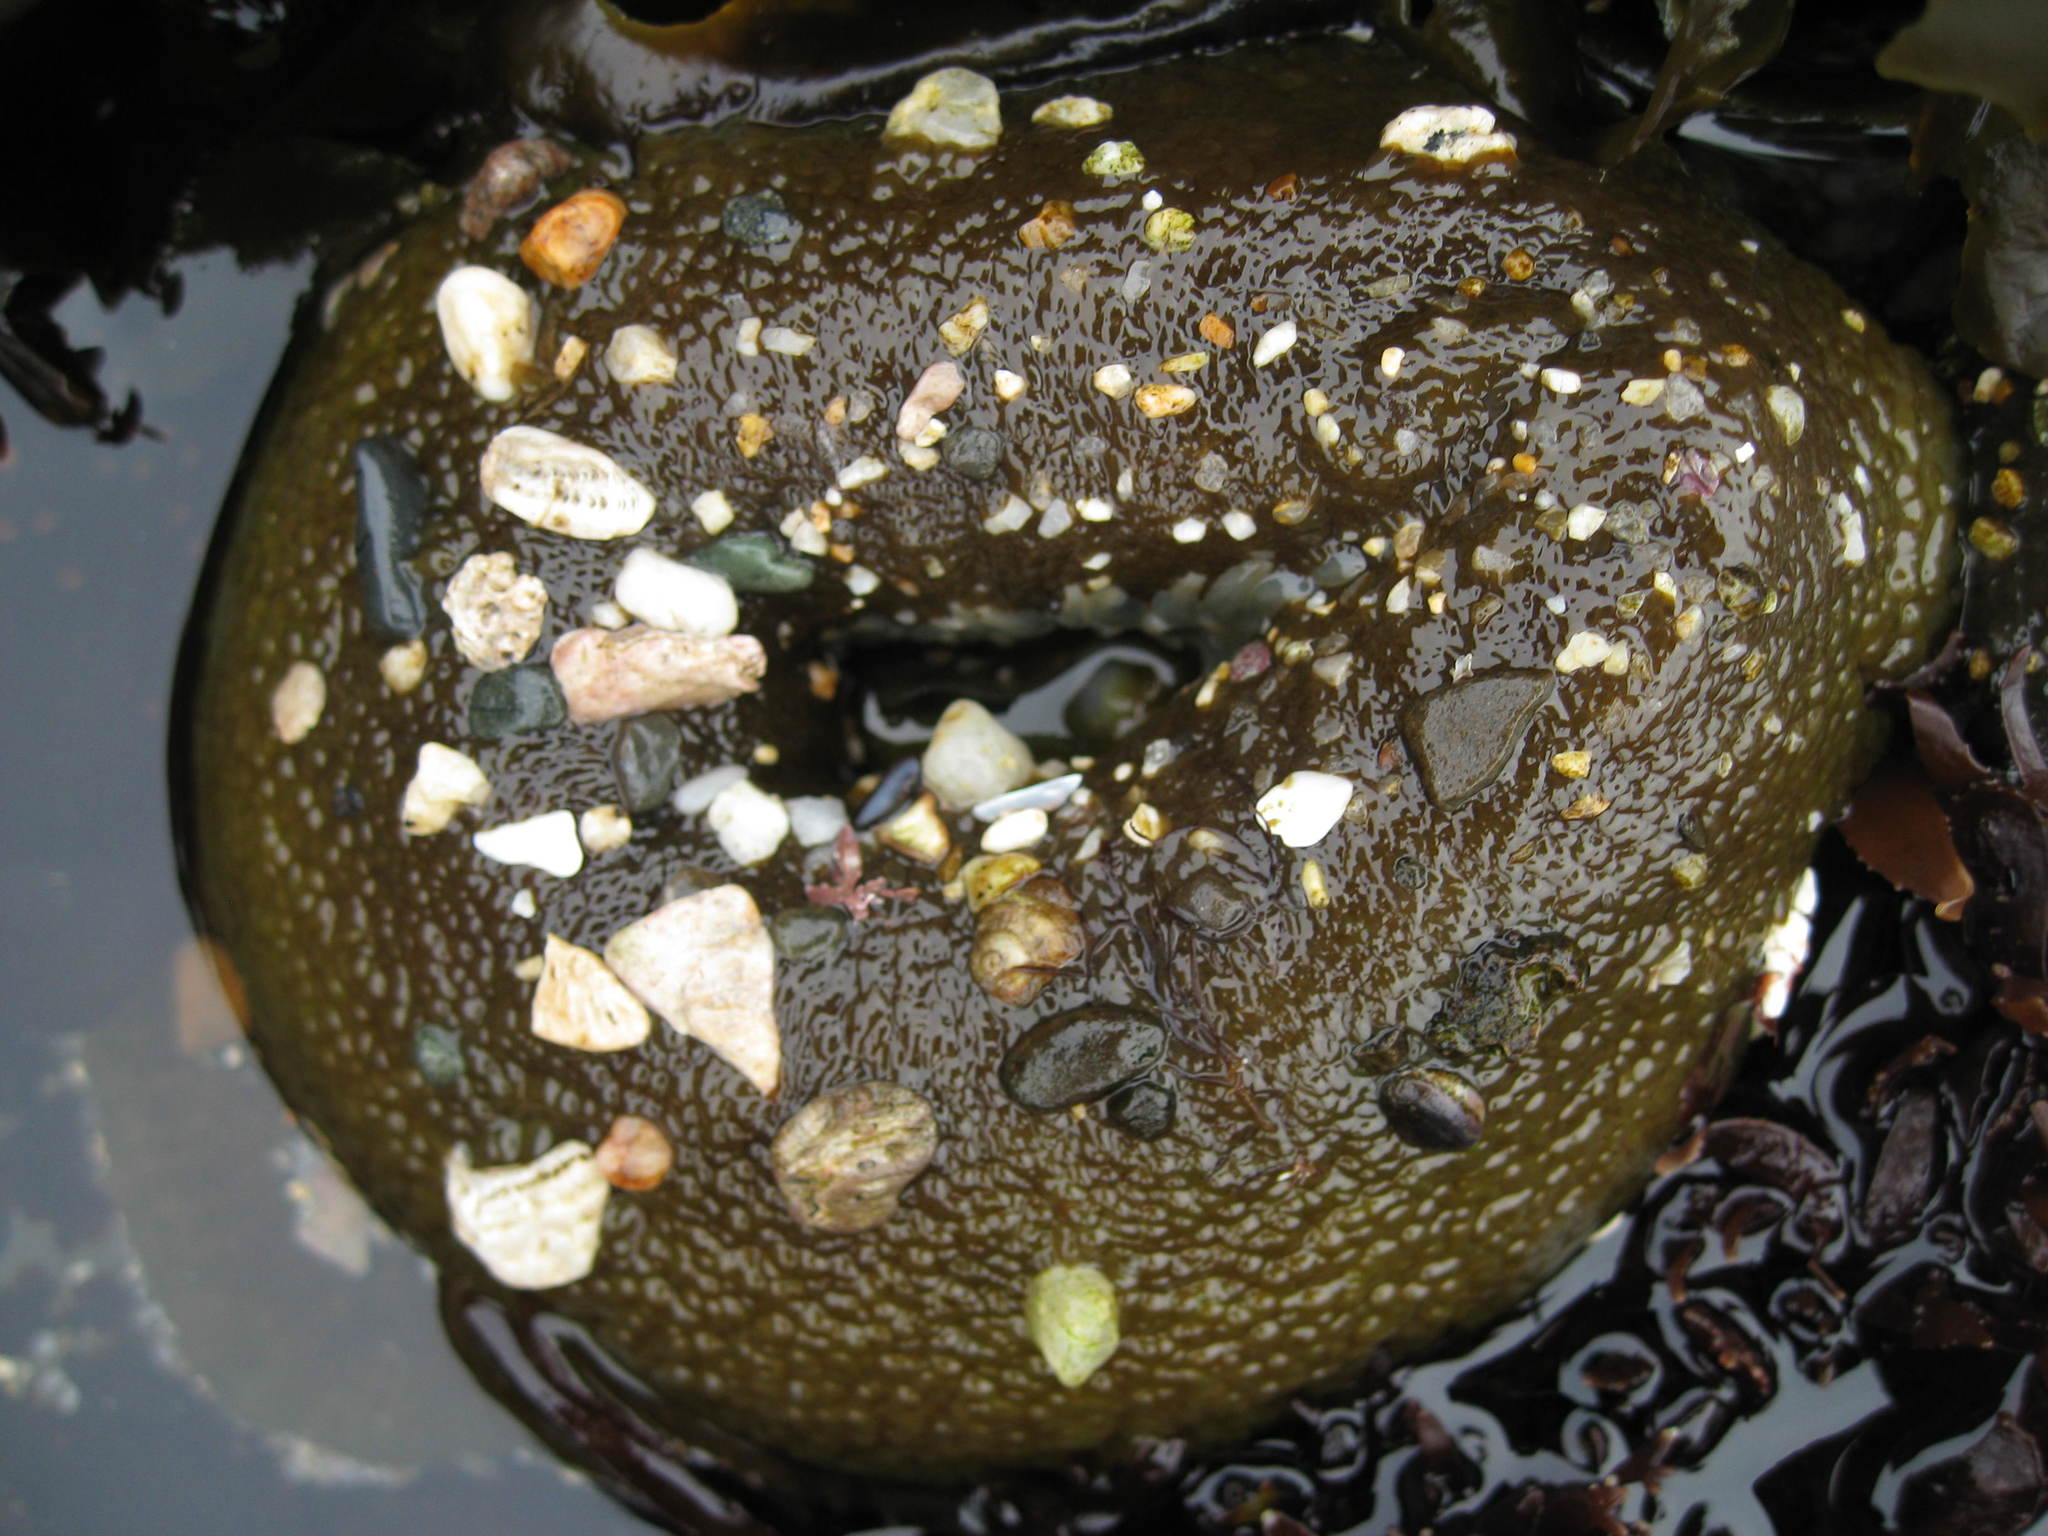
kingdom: Animalia
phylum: Cnidaria
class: Anthozoa
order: Actiniaria
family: Actiniidae
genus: Anthopleura
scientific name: Anthopleura xanthogrammica
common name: Giant green anemone
